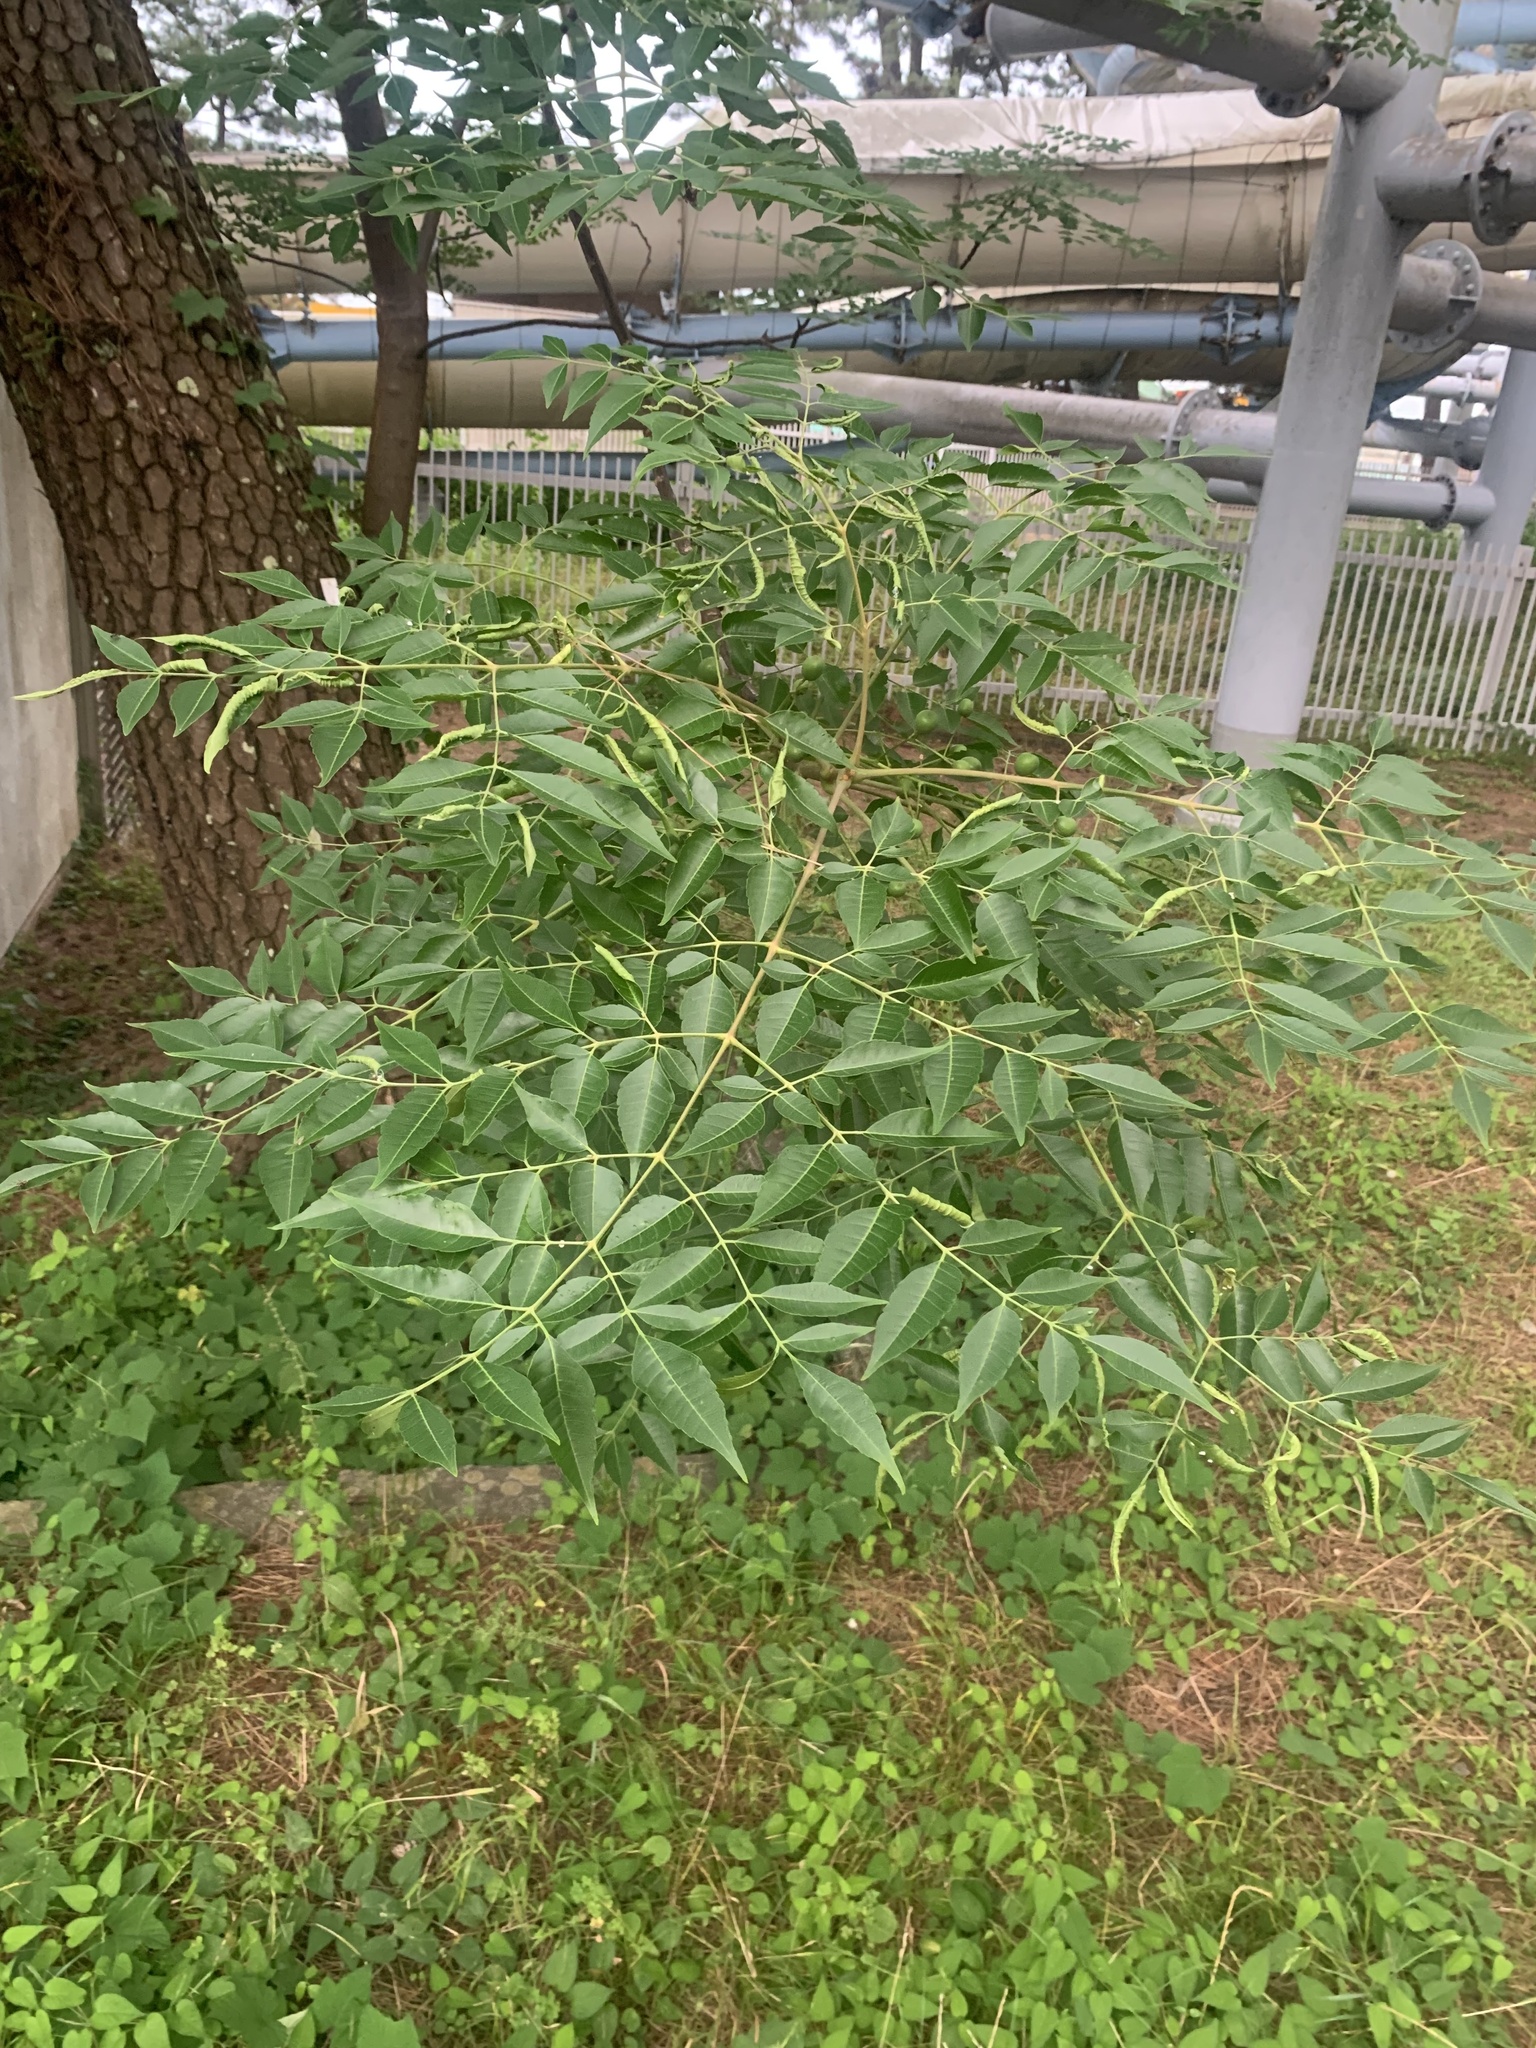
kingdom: Plantae
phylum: Tracheophyta
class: Magnoliopsida
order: Sapindales
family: Meliaceae
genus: Melia
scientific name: Melia azedarach
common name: Chinaberrytree
